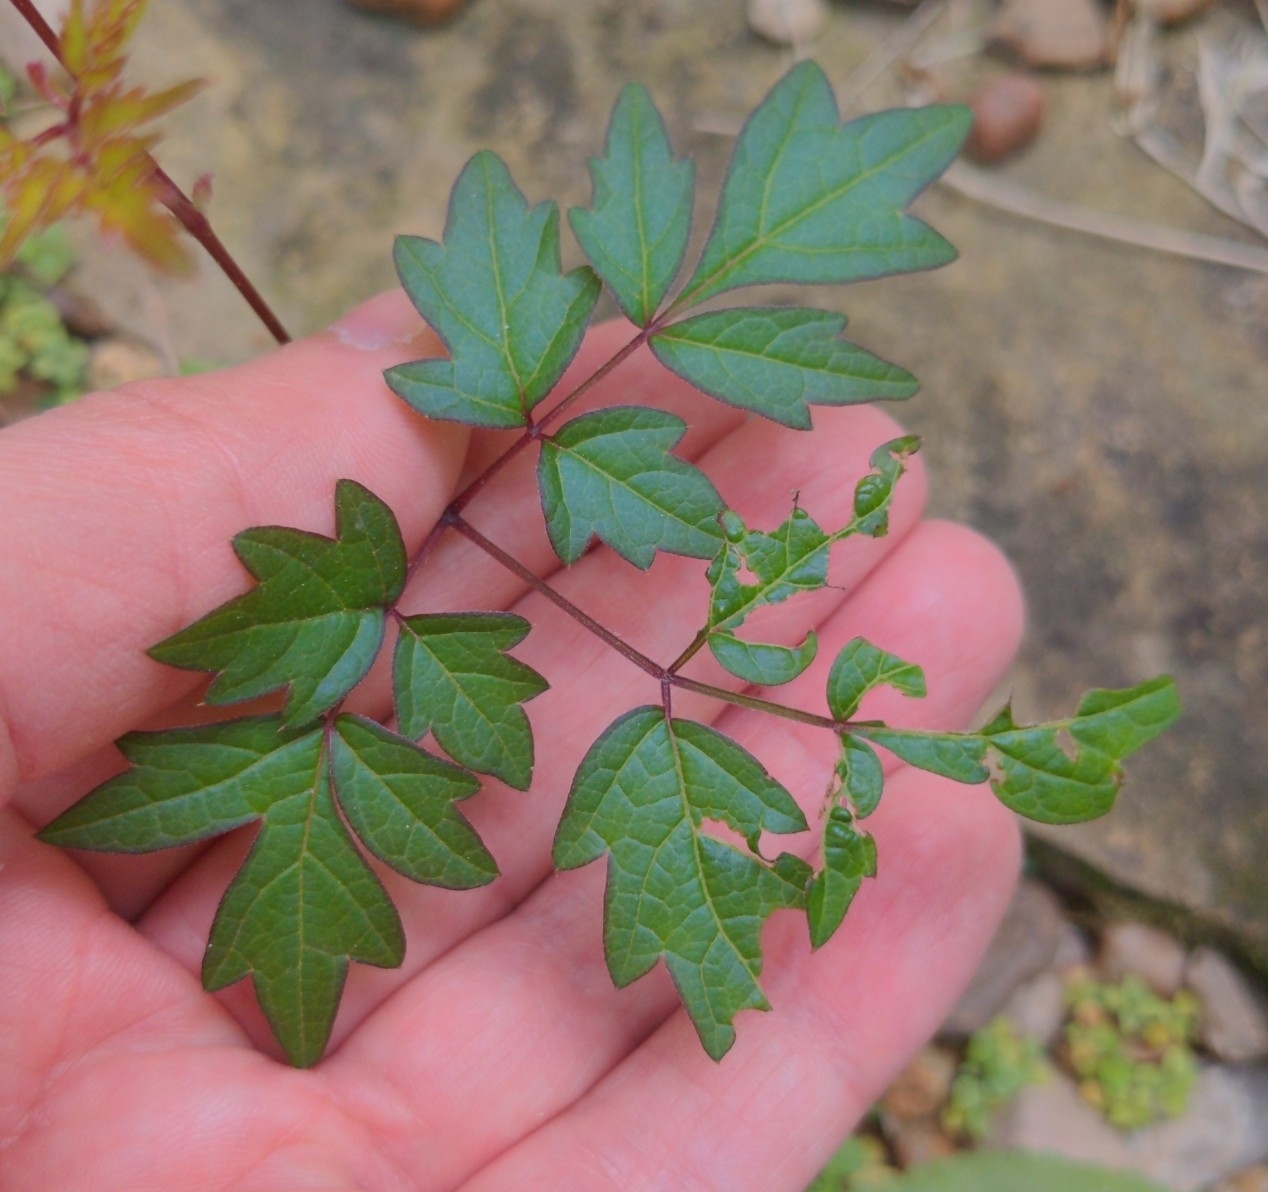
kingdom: Plantae
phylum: Tracheophyta
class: Magnoliopsida
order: Vitales
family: Vitaceae
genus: Nekemias
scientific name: Nekemias arborea
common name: Peppervine
